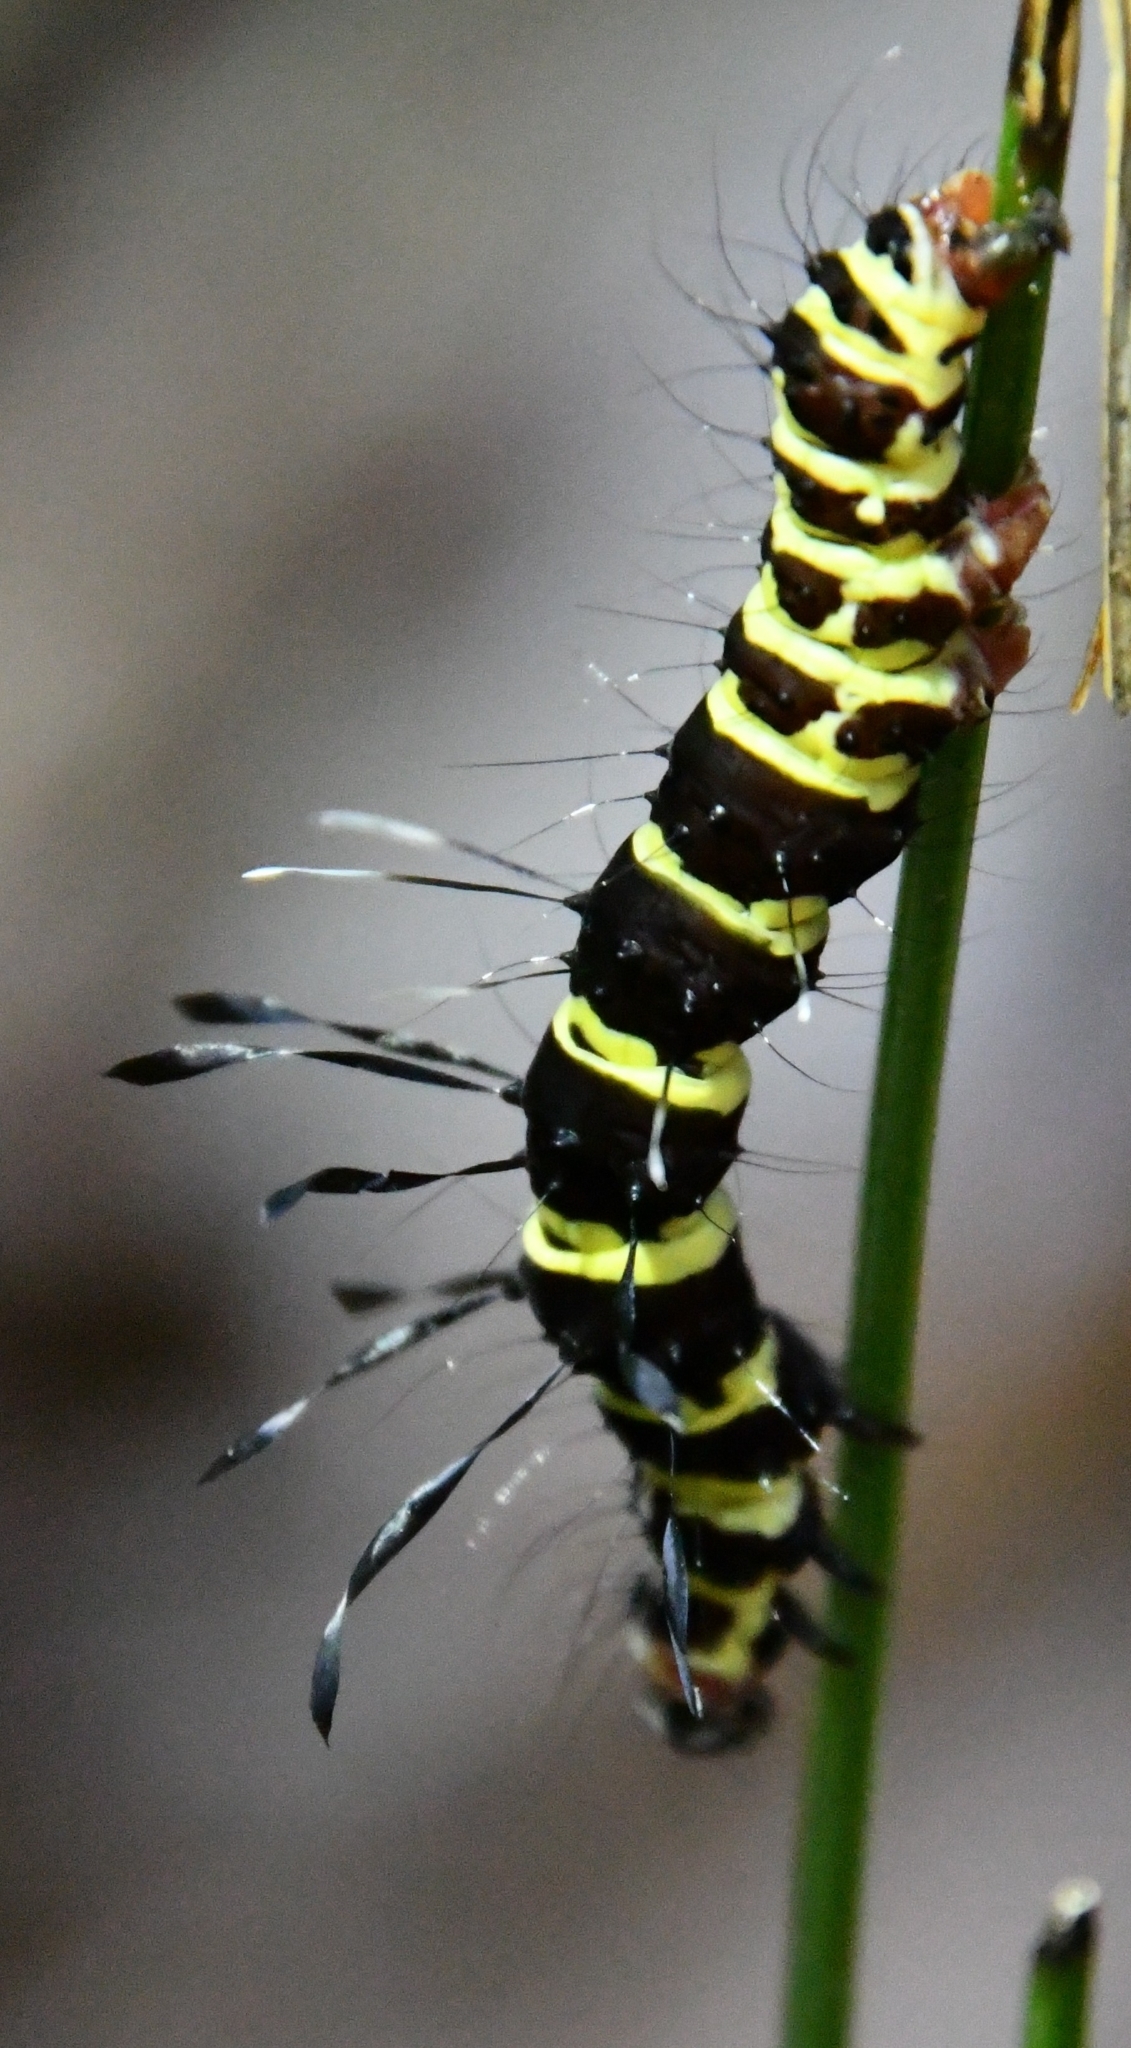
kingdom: Animalia
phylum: Arthropoda
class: Insecta
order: Lepidoptera
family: Erebidae
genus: Tinolius
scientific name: Tinolius eburneigutta
